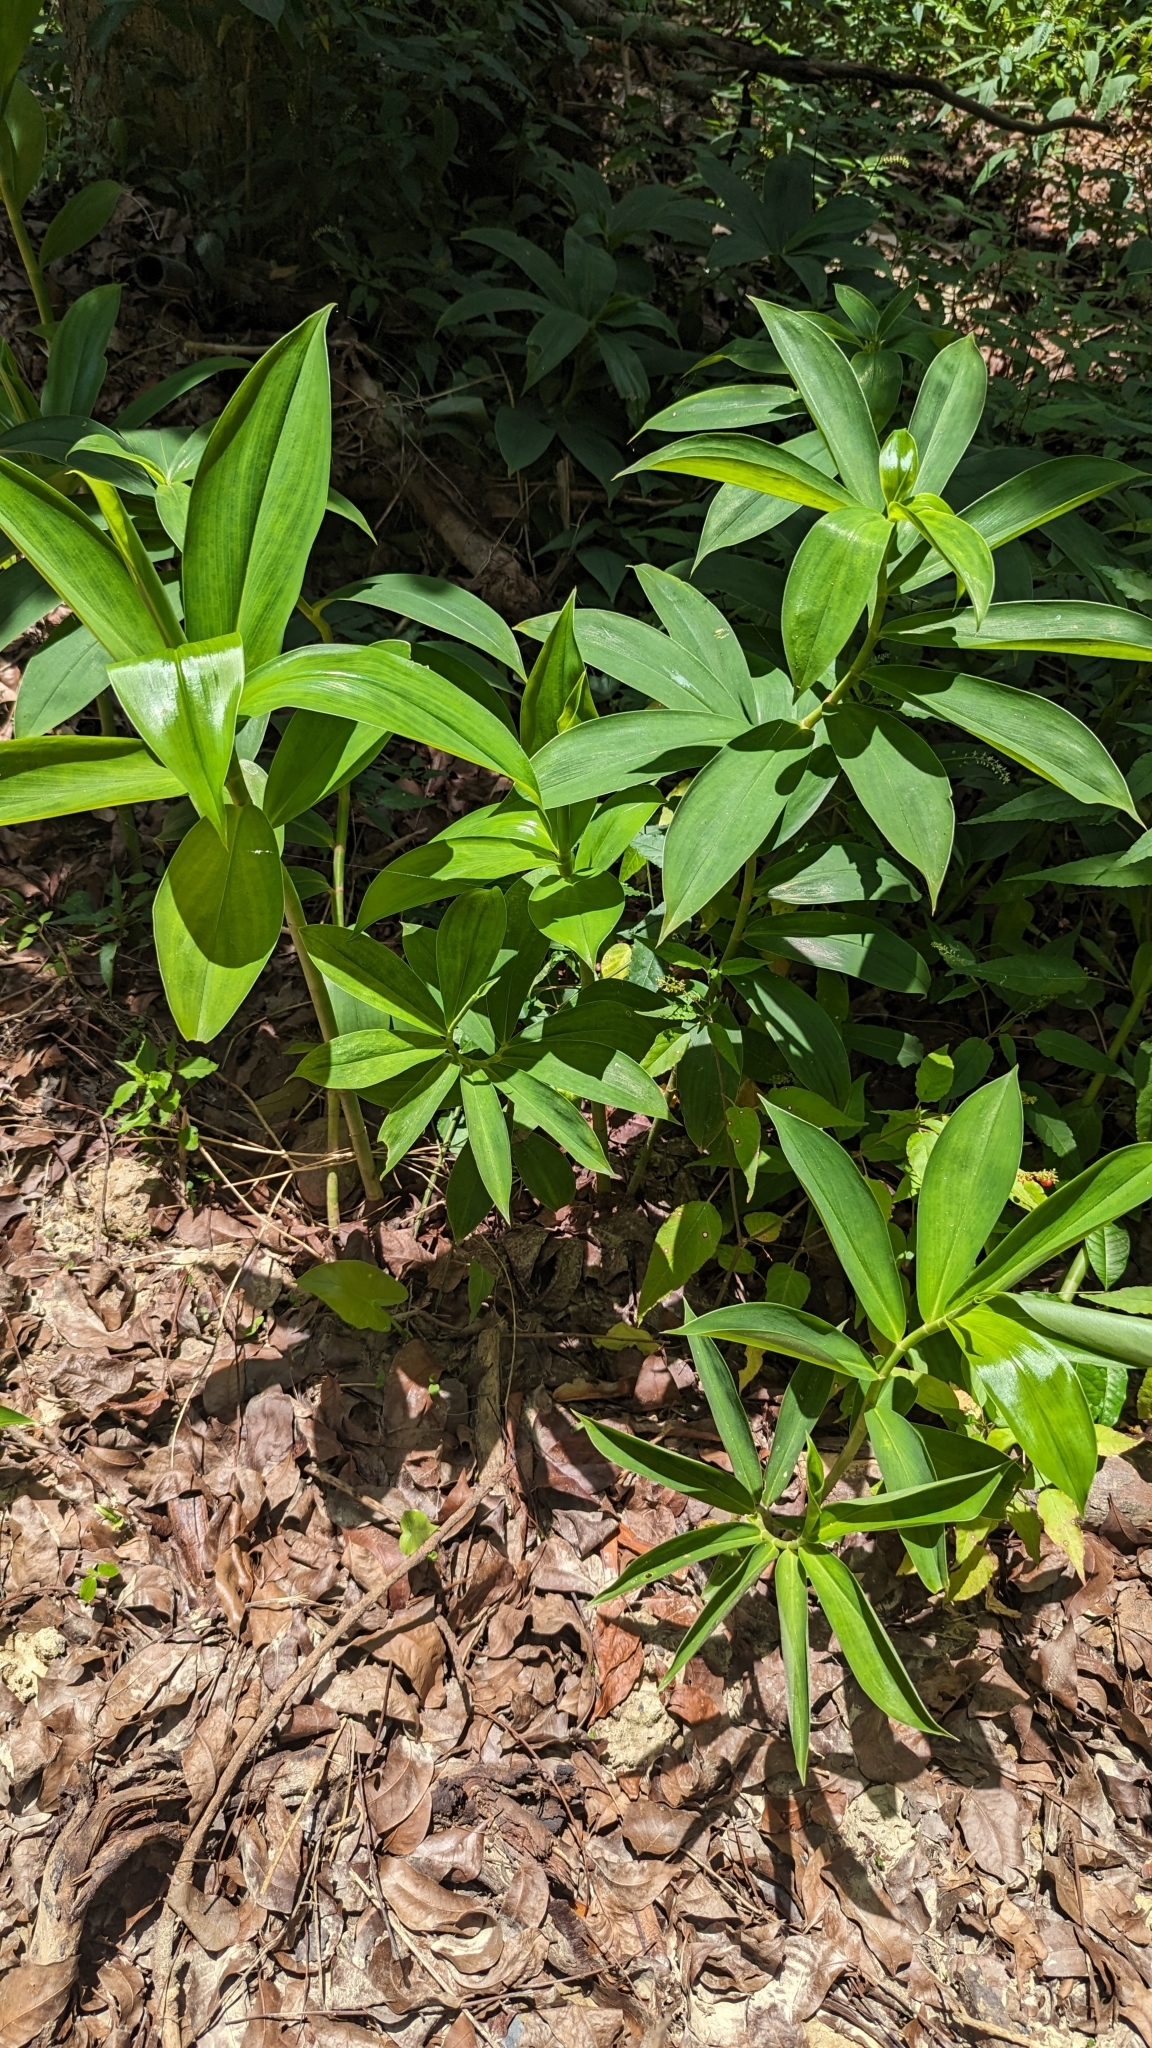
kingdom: Plantae
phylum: Tracheophyta
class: Liliopsida
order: Zingiberales
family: Costaceae
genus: Hellenia
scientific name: Hellenia speciosa
